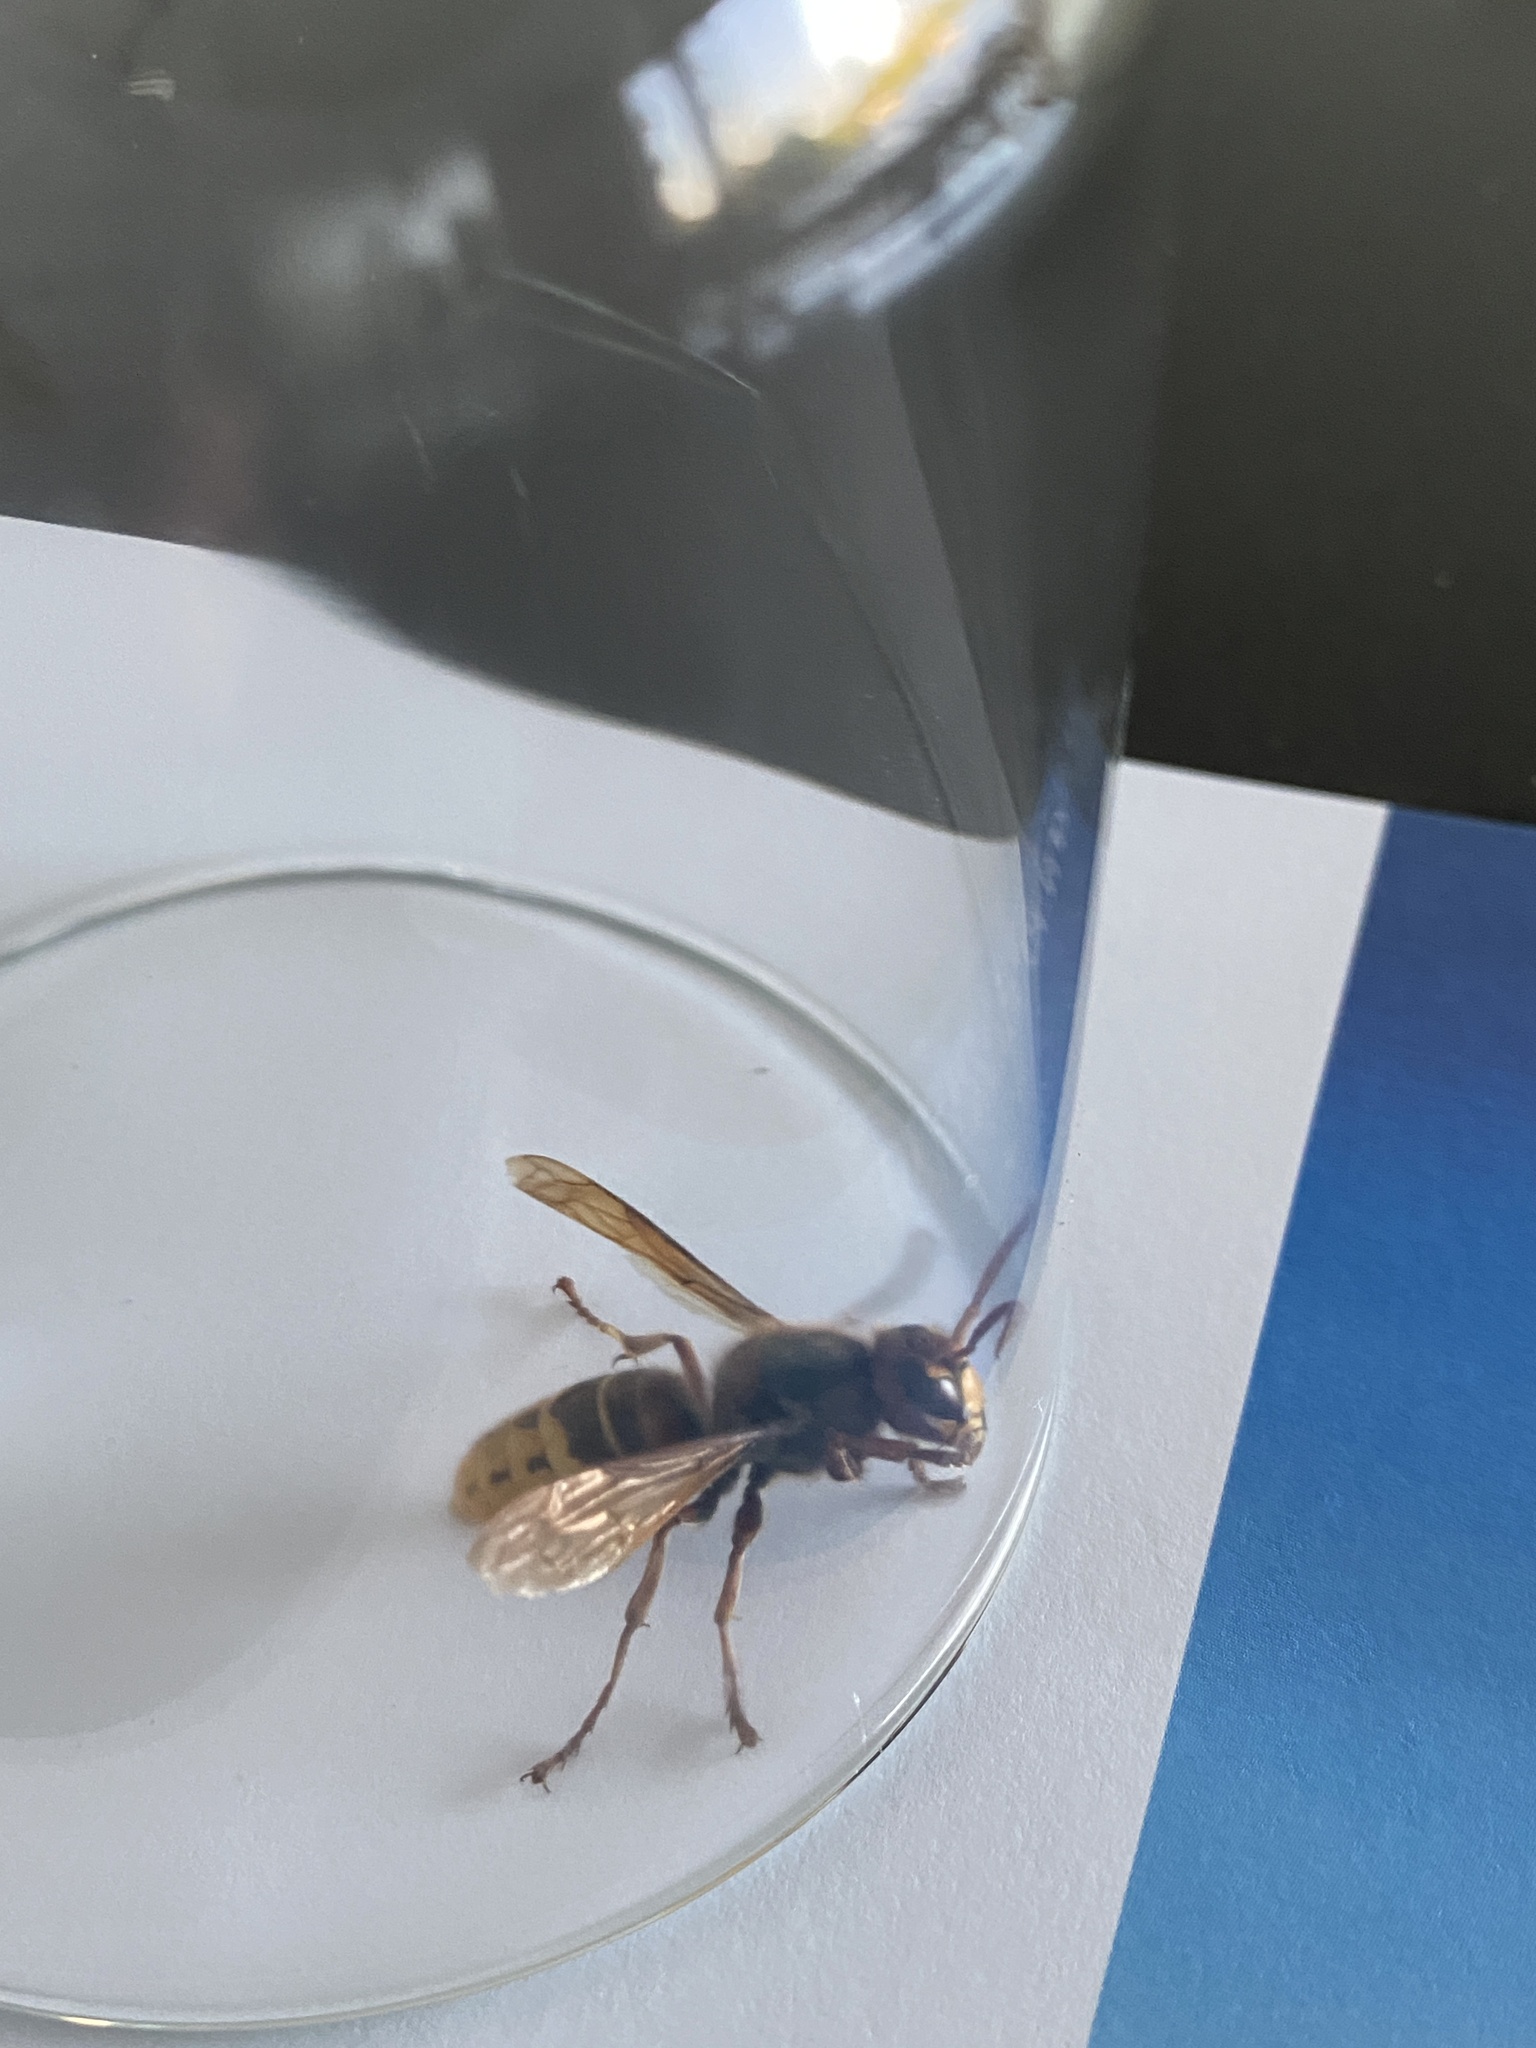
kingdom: Animalia
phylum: Arthropoda
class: Insecta
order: Hymenoptera
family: Vespidae
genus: Vespa
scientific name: Vespa crabro
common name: Hornet
